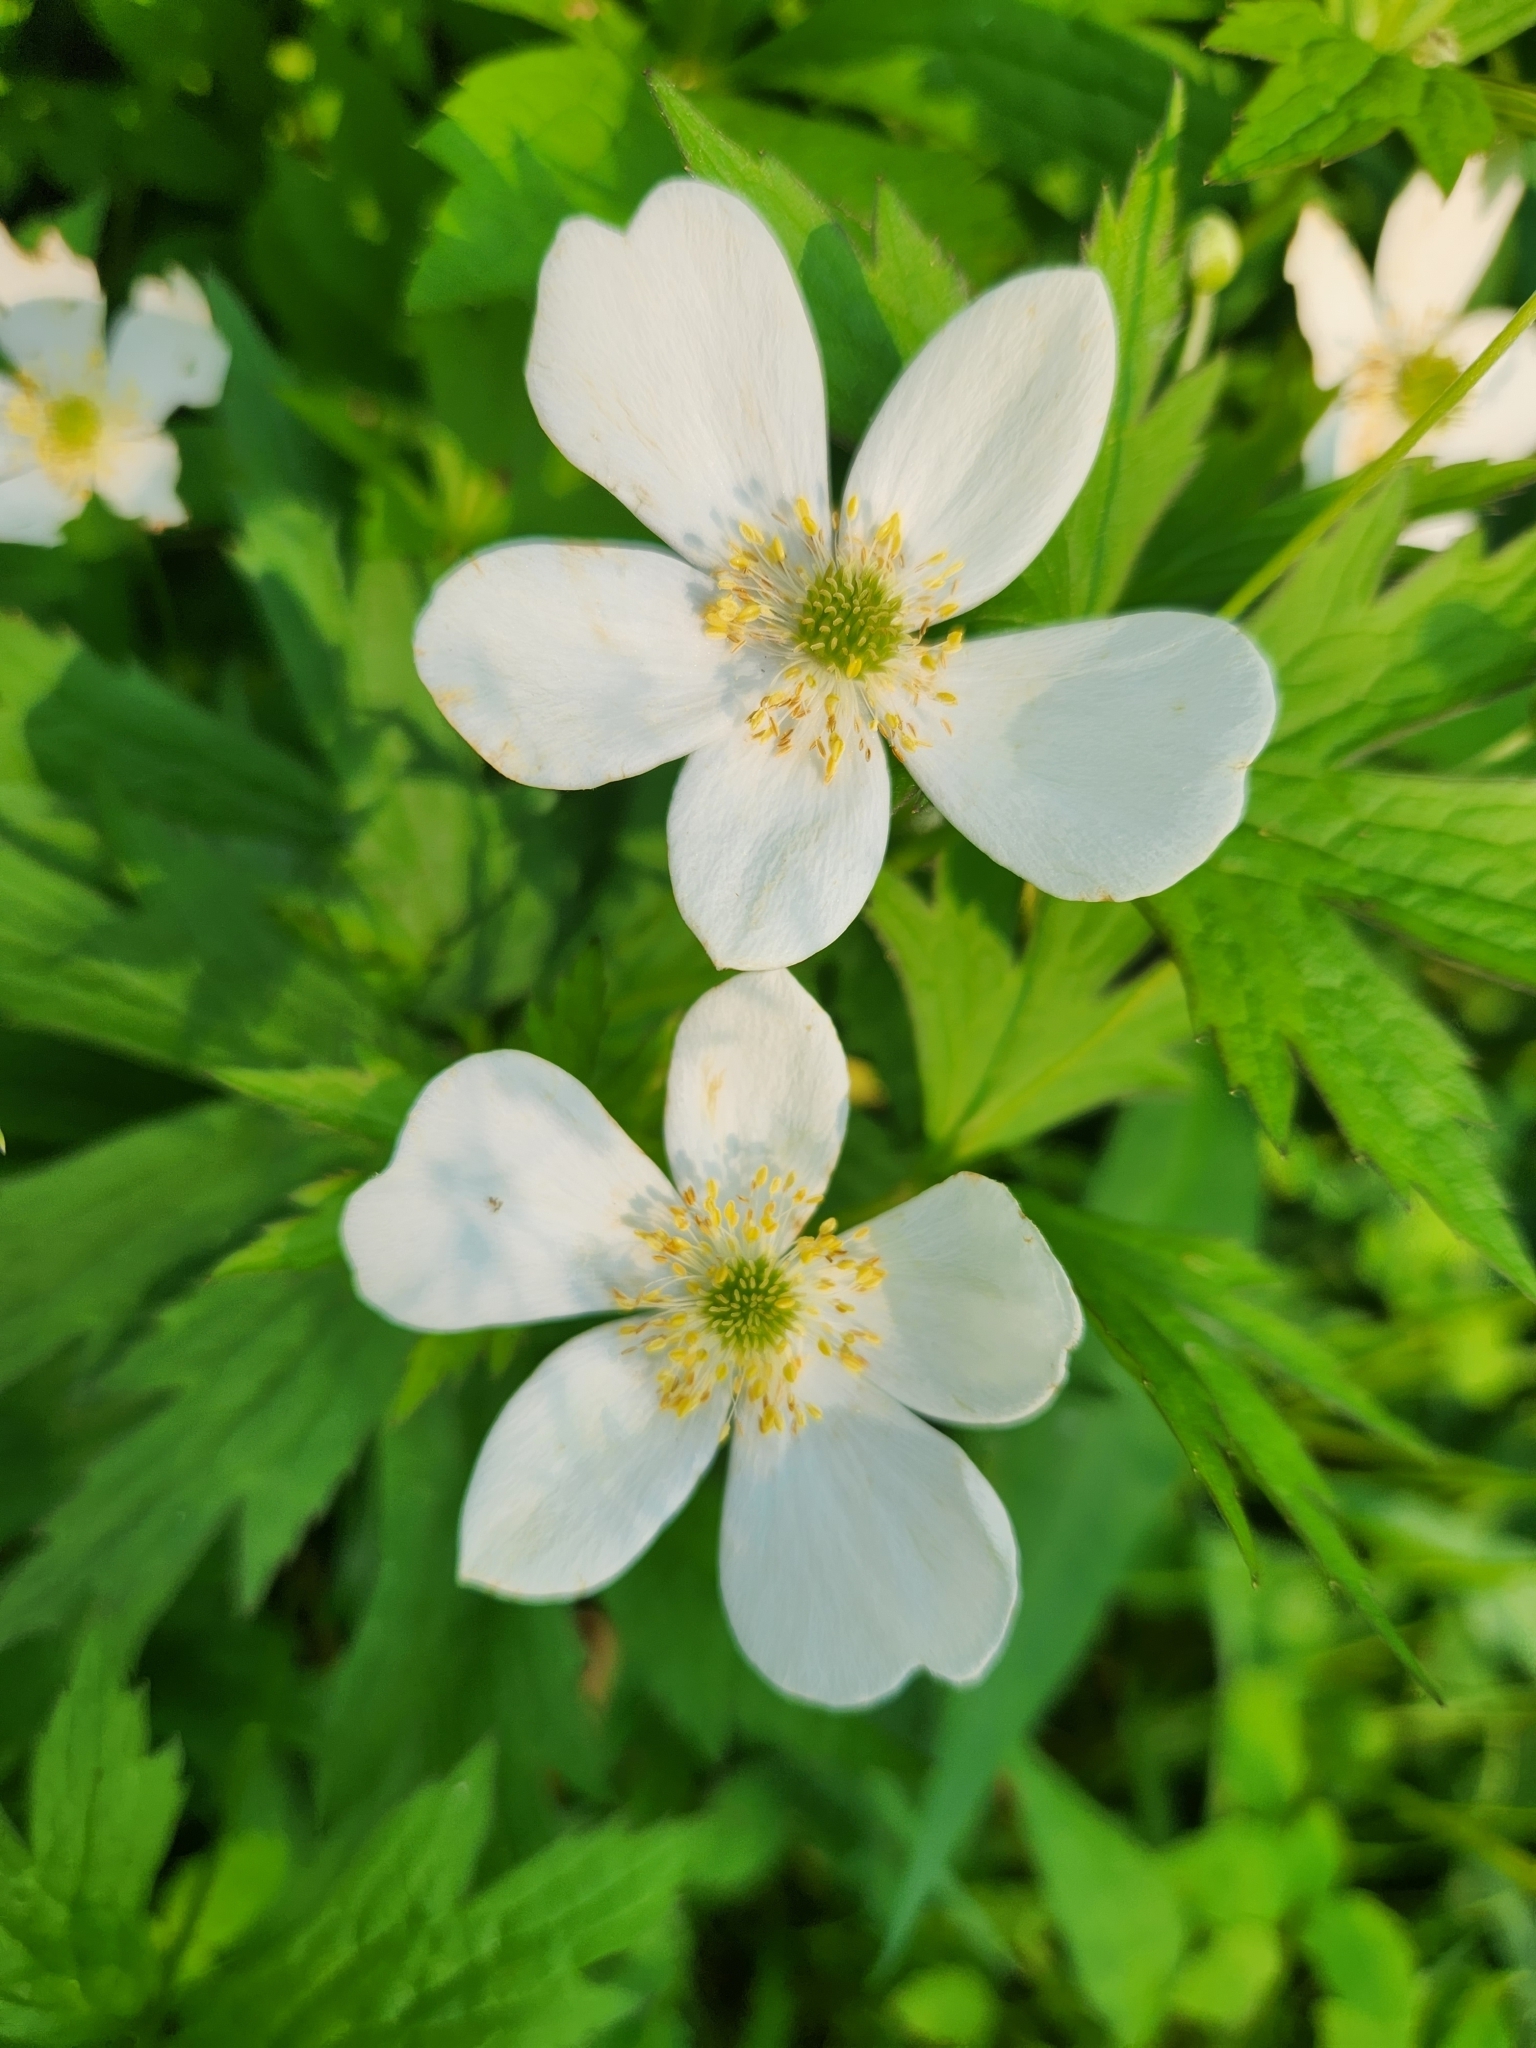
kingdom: Plantae
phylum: Tracheophyta
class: Magnoliopsida
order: Ranunculales
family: Ranunculaceae
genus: Anemonastrum
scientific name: Anemonastrum canadense
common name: Canada anemone
